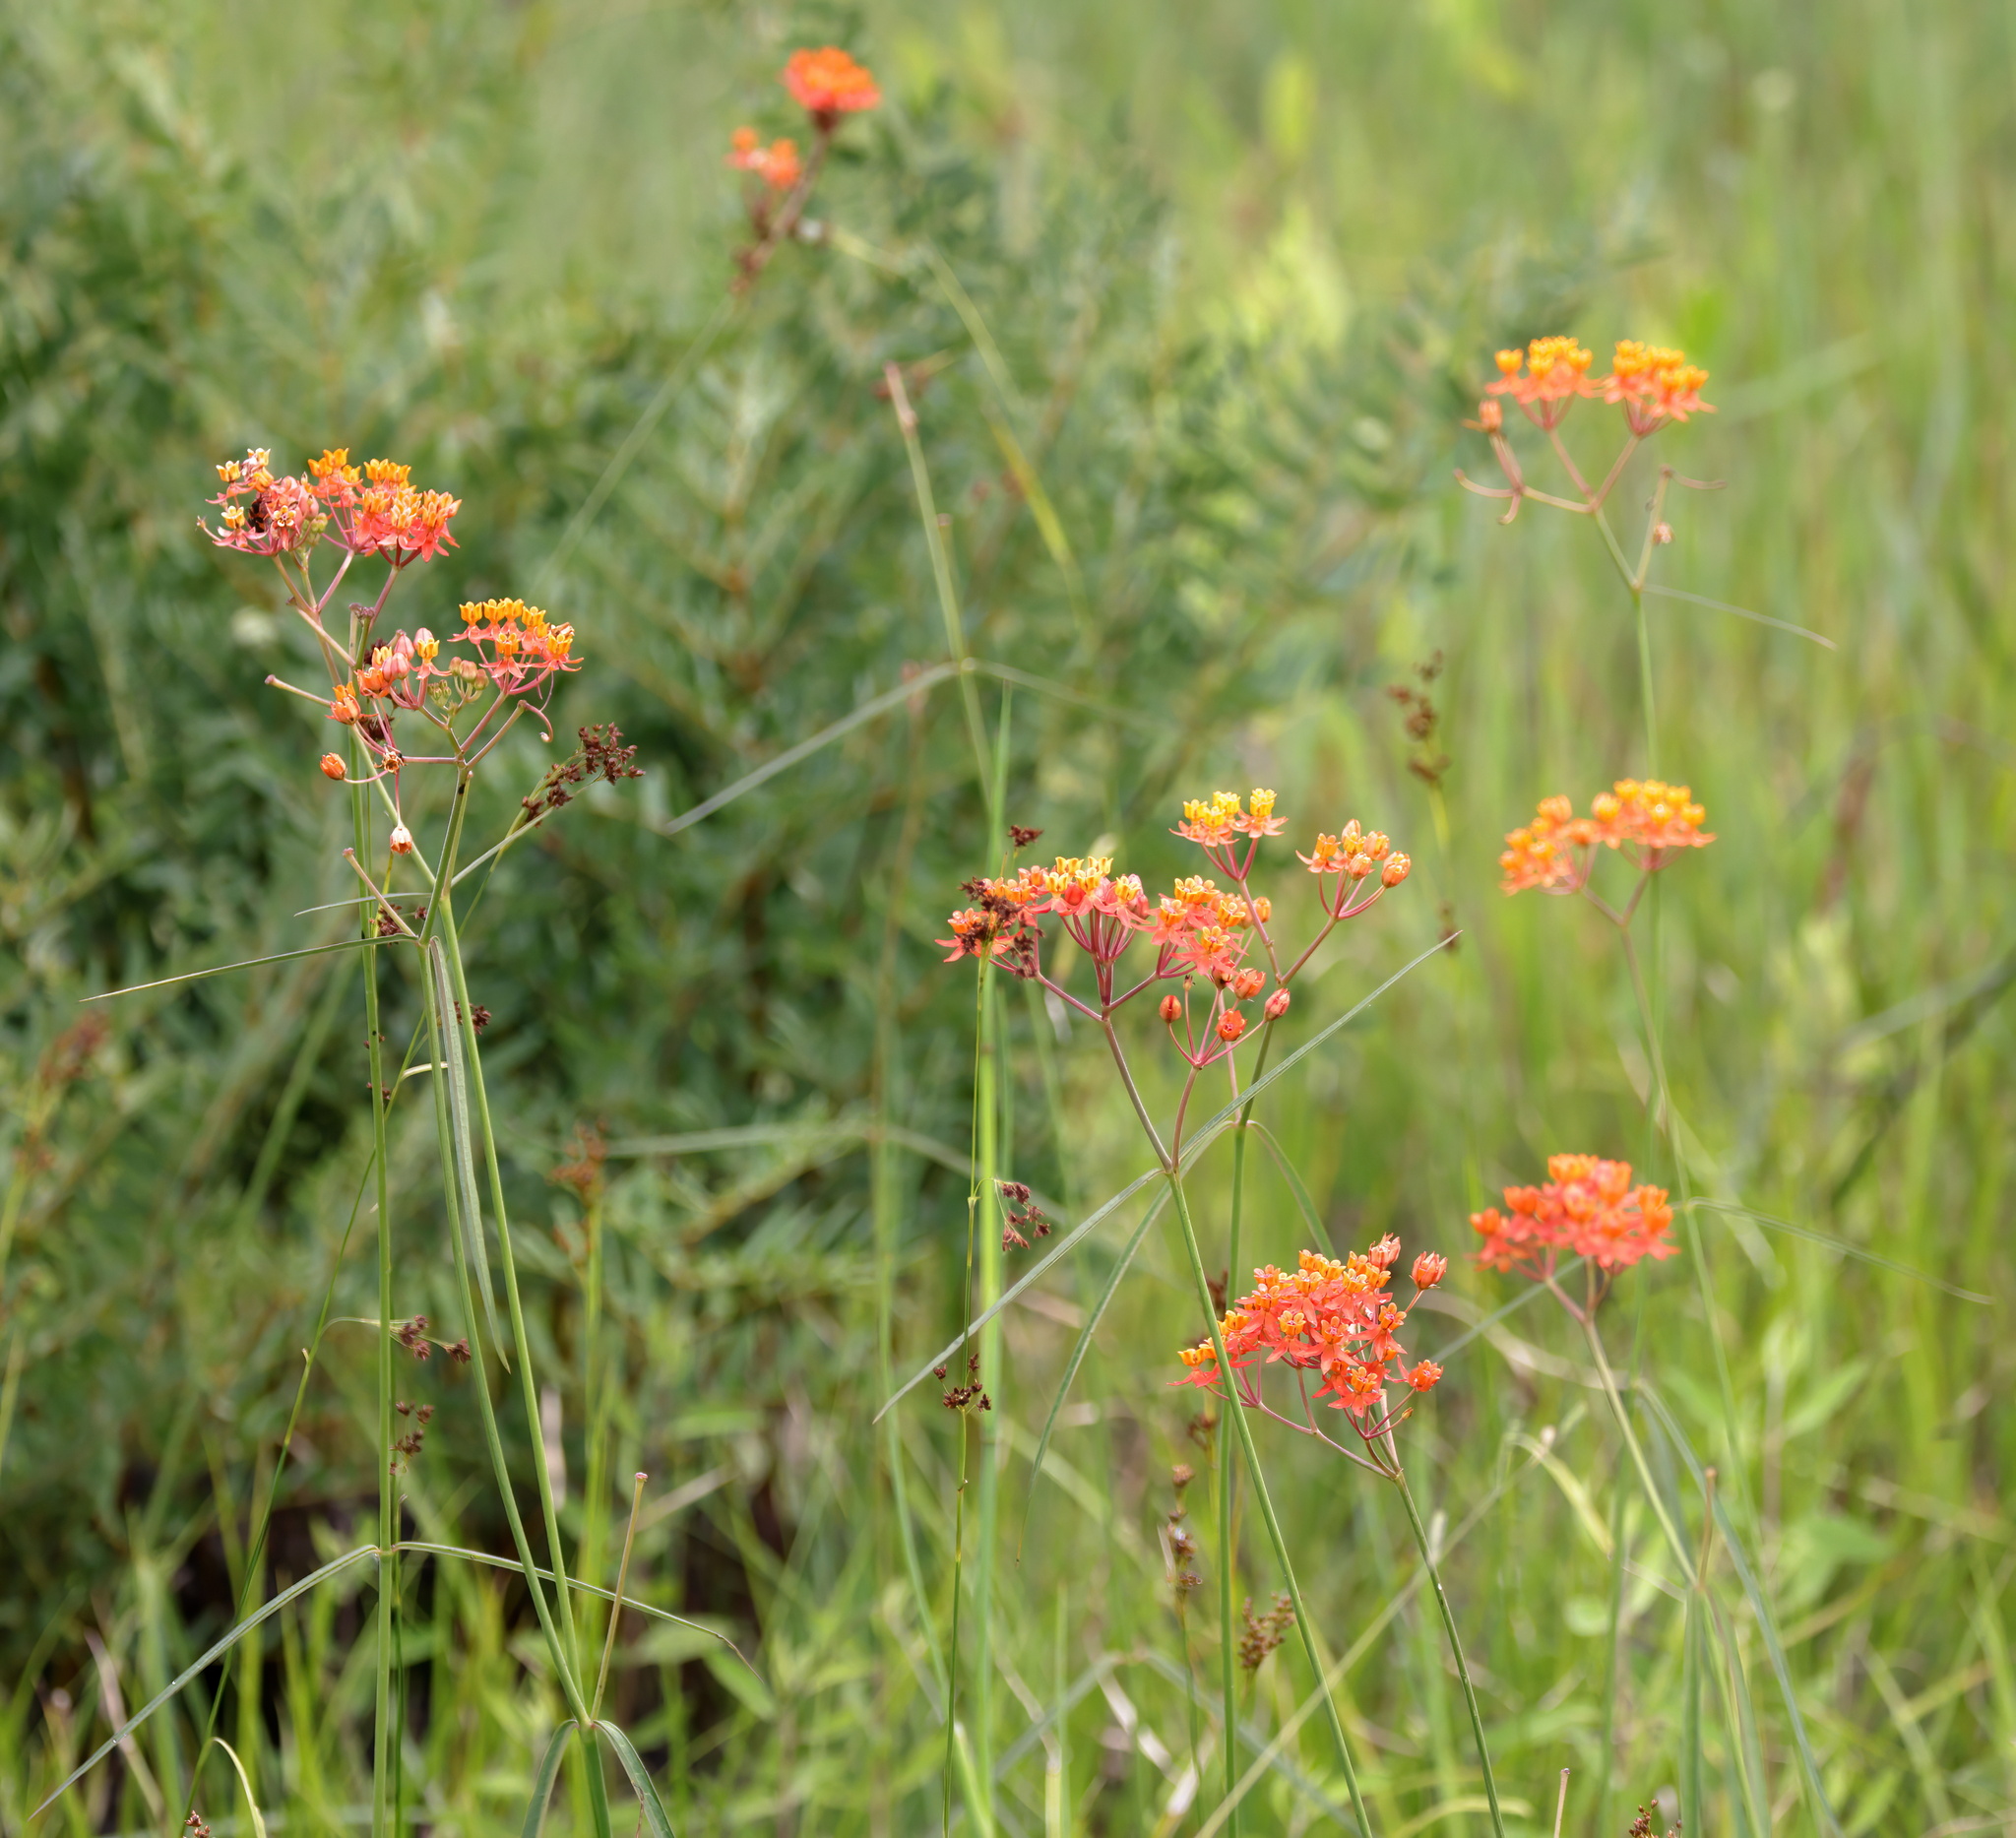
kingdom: Plantae
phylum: Tracheophyta
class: Magnoliopsida
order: Gentianales
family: Apocynaceae
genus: Asclepias
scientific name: Asclepias lanceolata
